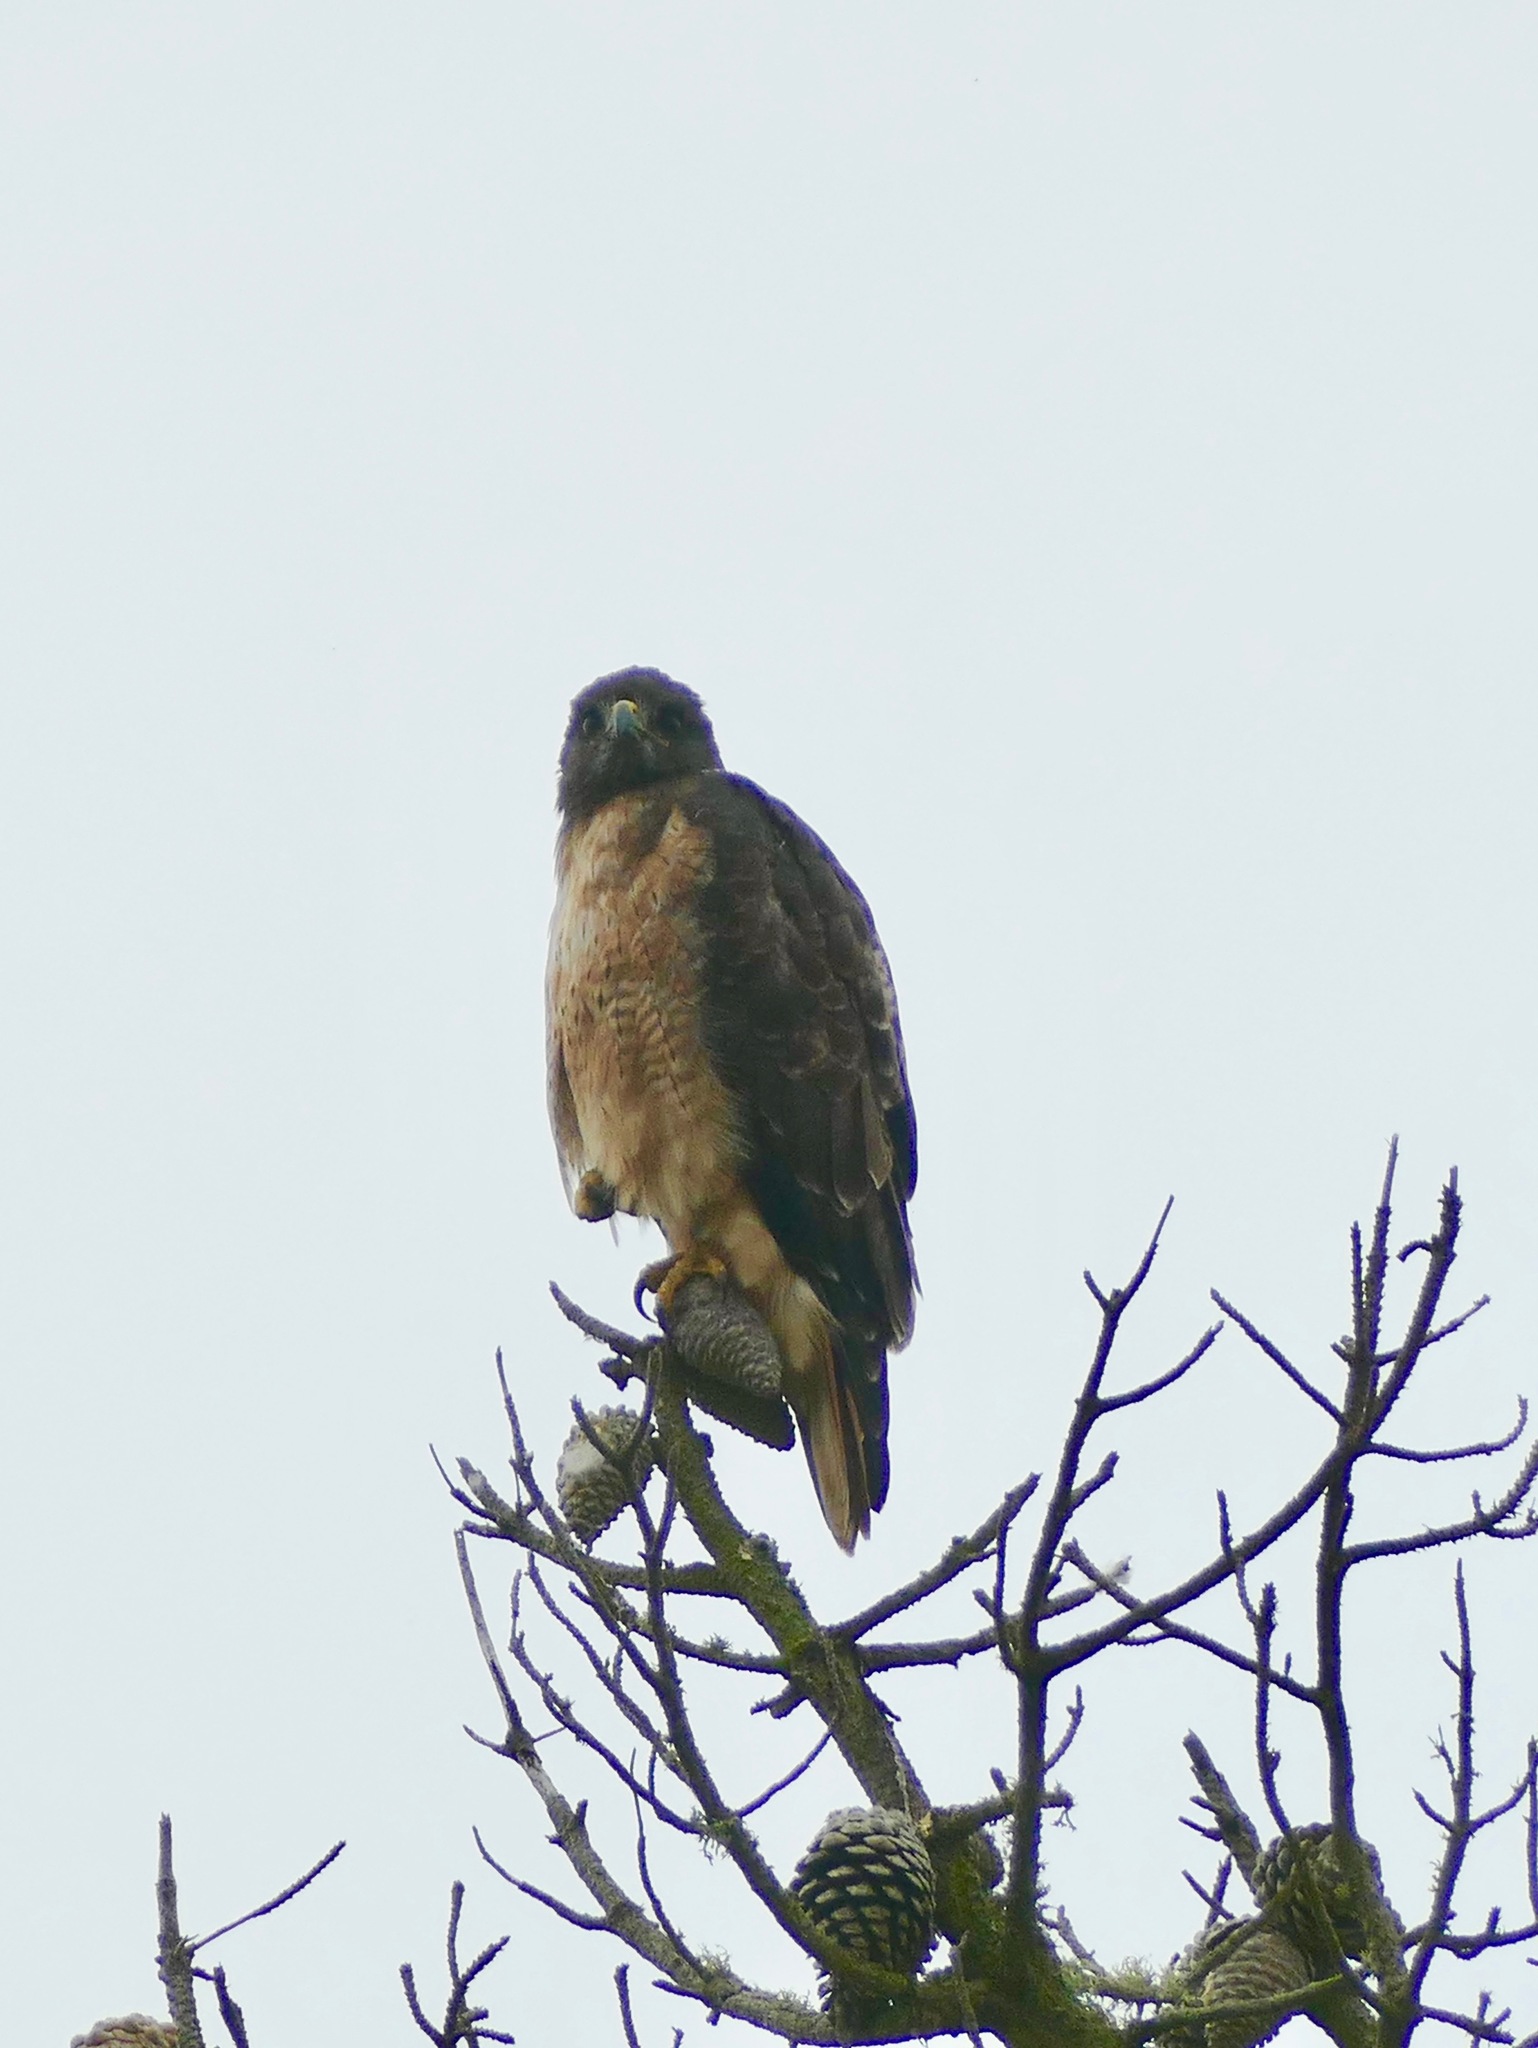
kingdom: Animalia
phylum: Chordata
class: Aves
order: Accipitriformes
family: Accipitridae
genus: Buteo
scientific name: Buteo jamaicensis
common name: Red-tailed hawk
